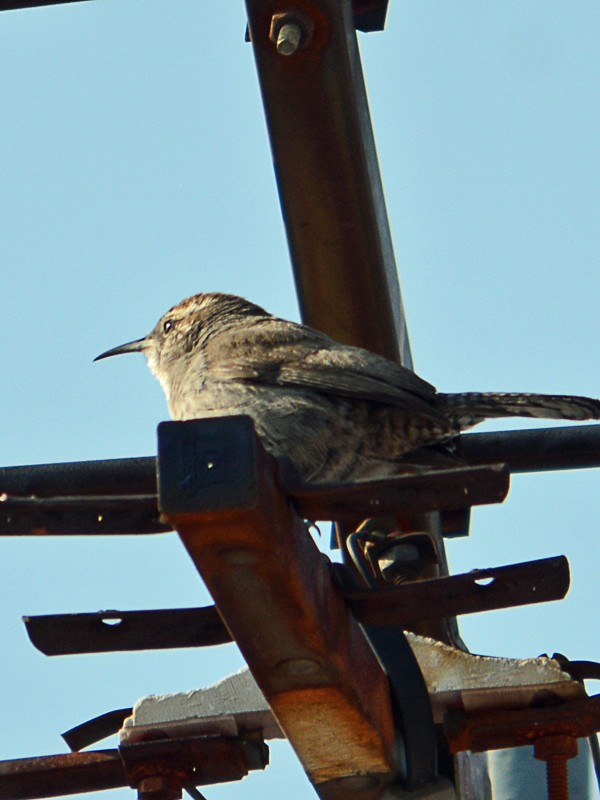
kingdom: Animalia
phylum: Chordata
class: Aves
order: Passeriformes
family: Troglodytidae
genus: Thryomanes
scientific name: Thryomanes bewickii
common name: Bewick's wren
